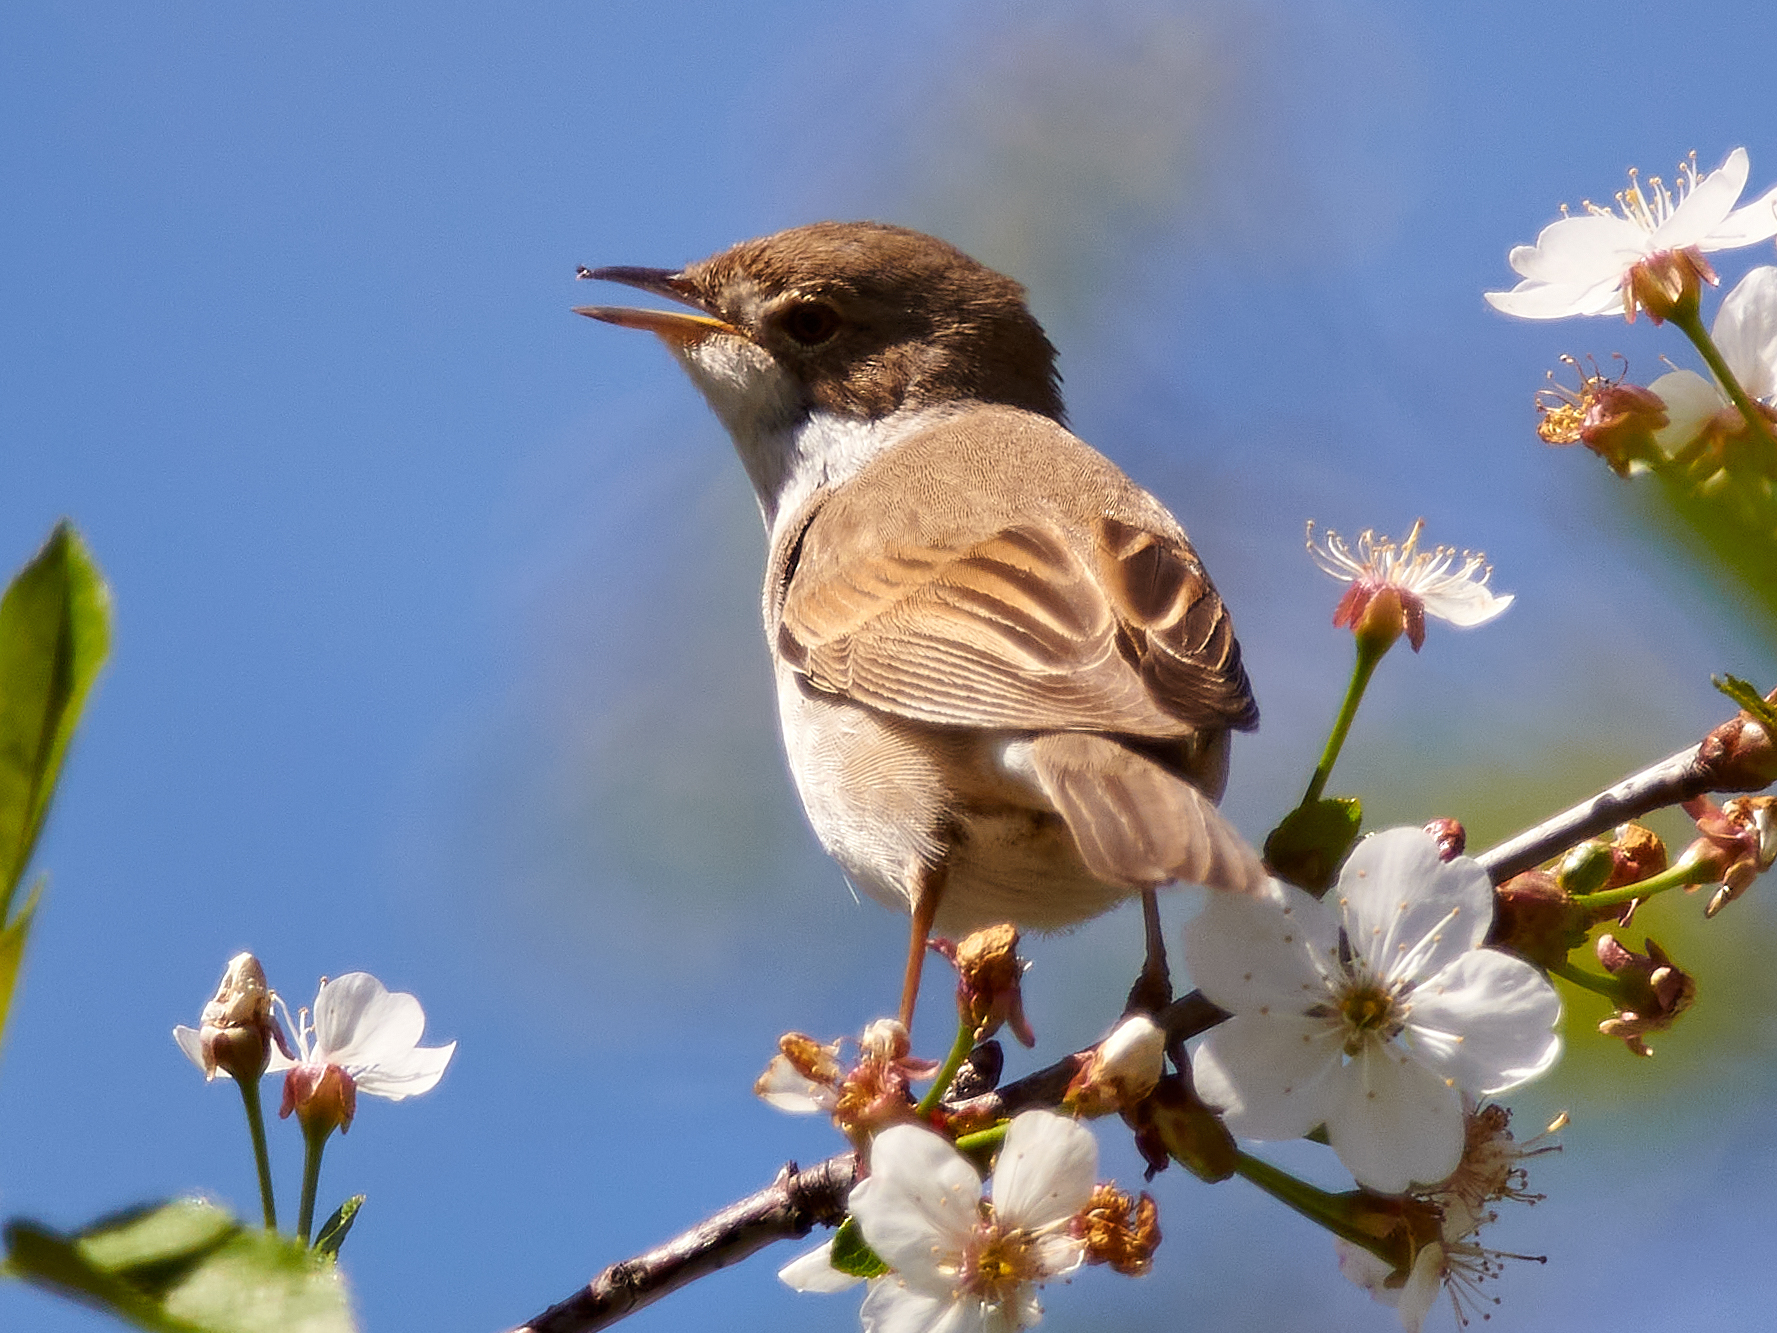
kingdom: Animalia
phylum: Chordata
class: Aves
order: Passeriformes
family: Sylviidae
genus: Sylvia
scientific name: Sylvia communis
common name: Common whitethroat
